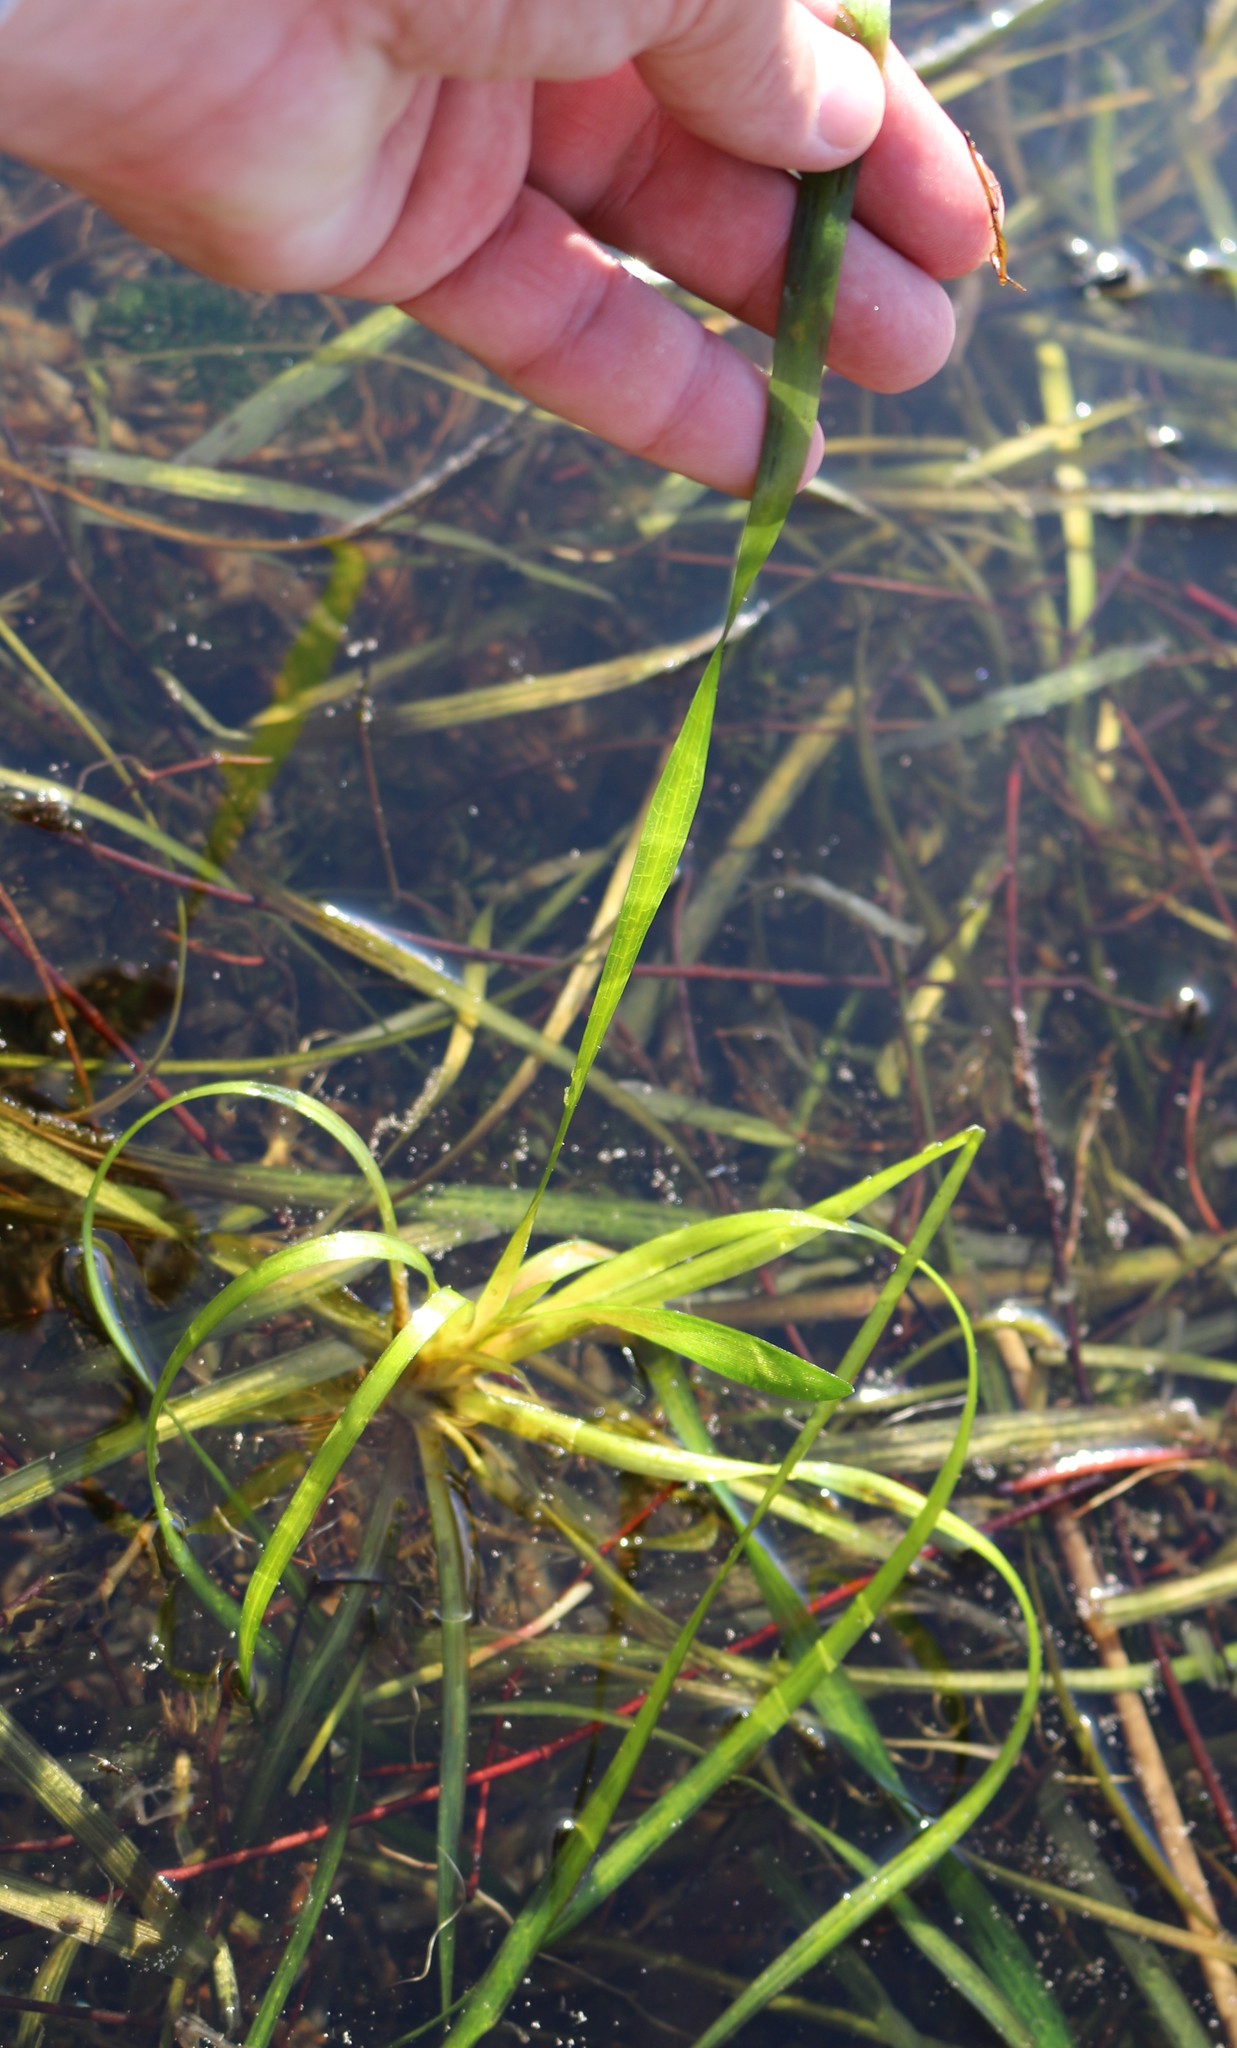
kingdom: Plantae
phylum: Tracheophyta
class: Liliopsida
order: Alismatales
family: Hydrocharitaceae
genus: Vallisneria
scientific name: Vallisneria spiralis
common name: Tapegrass
